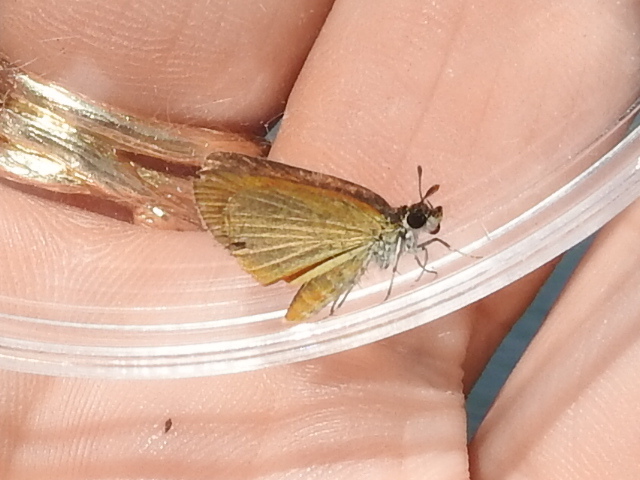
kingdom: Animalia
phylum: Arthropoda
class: Insecta
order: Lepidoptera
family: Hesperiidae
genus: Ancyloxypha
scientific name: Ancyloxypha numitor
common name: Least skipper
